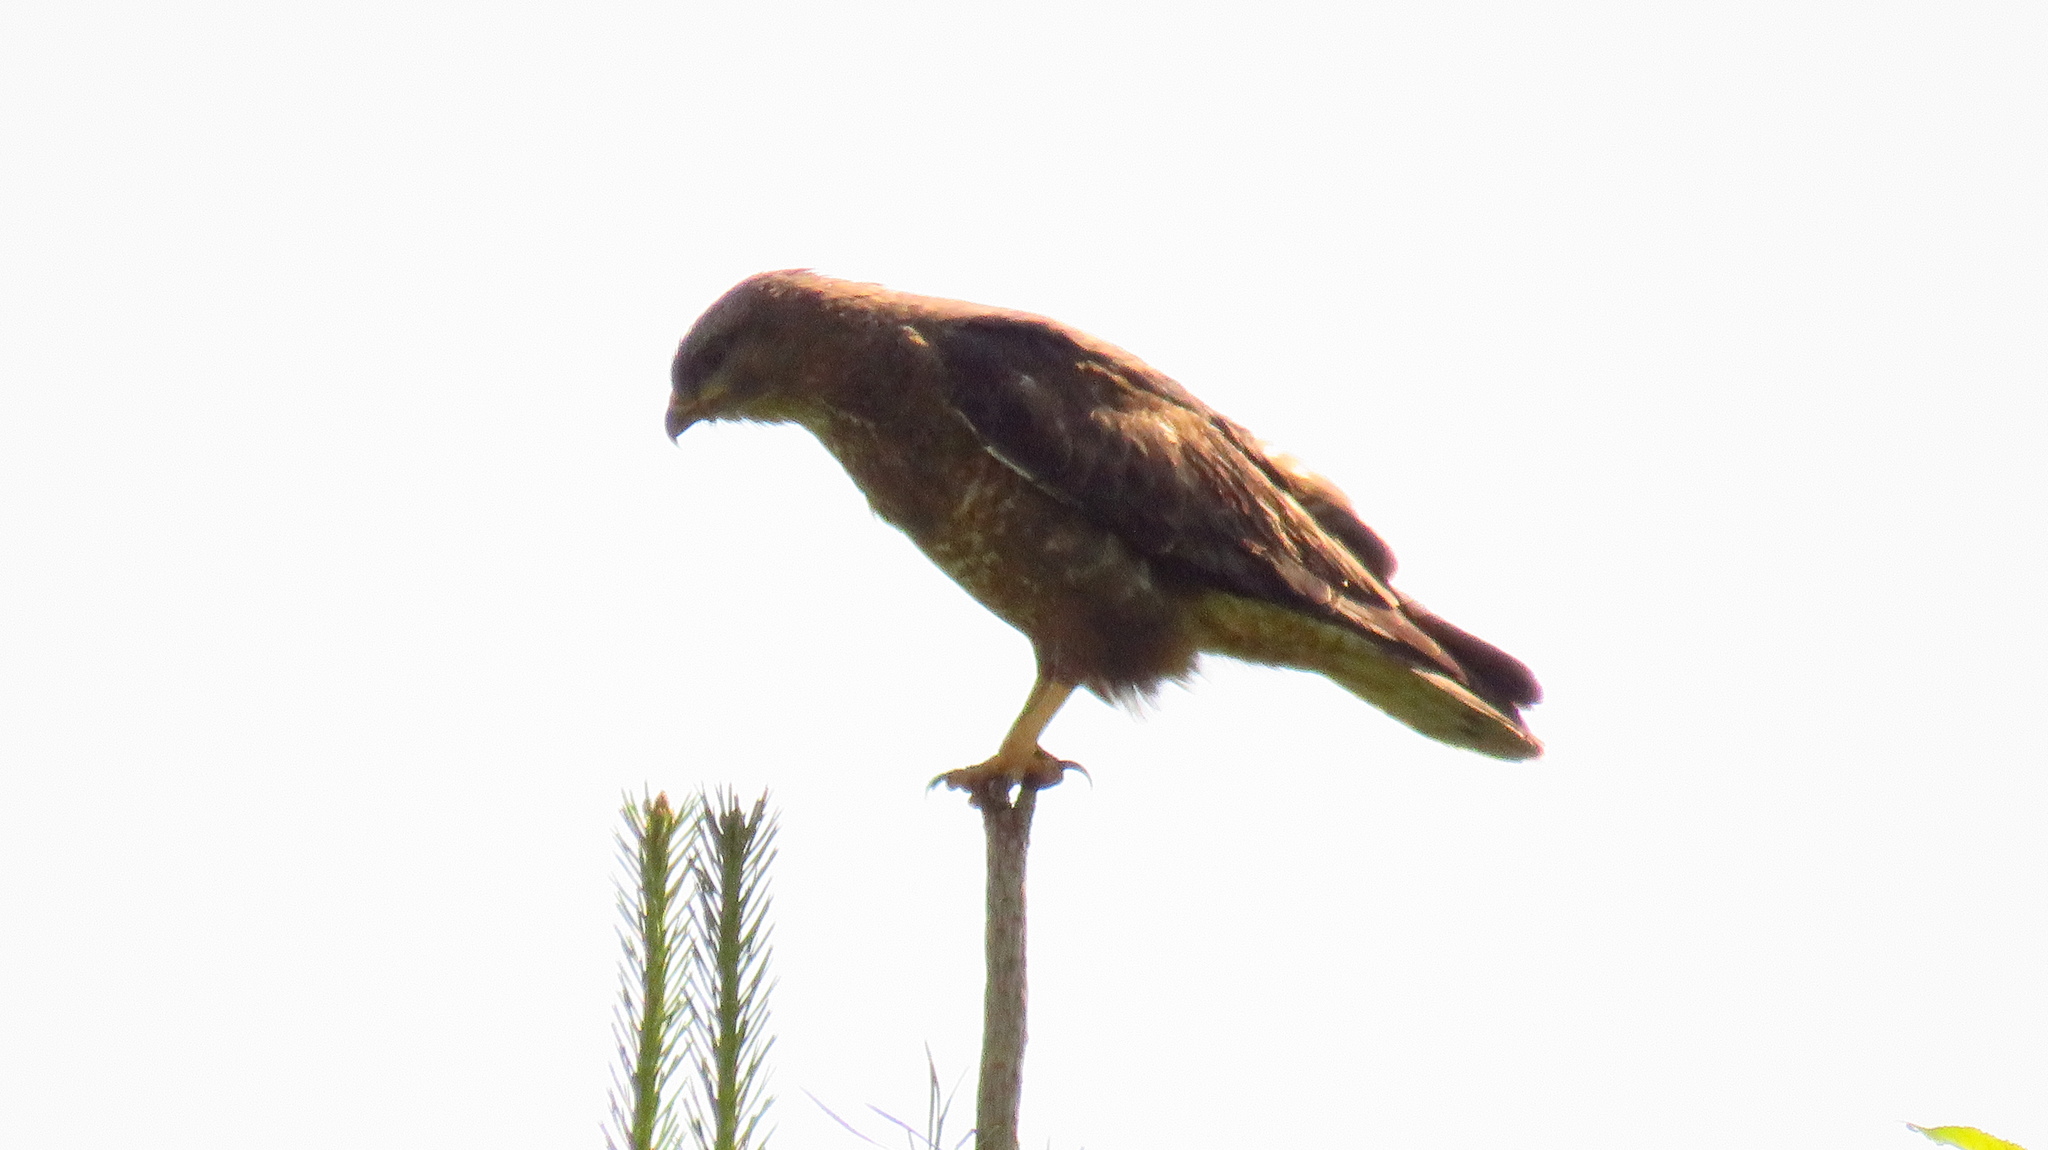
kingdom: Animalia
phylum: Chordata
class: Aves
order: Accipitriformes
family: Accipitridae
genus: Buteo
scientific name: Buteo buteo
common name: Common buzzard
